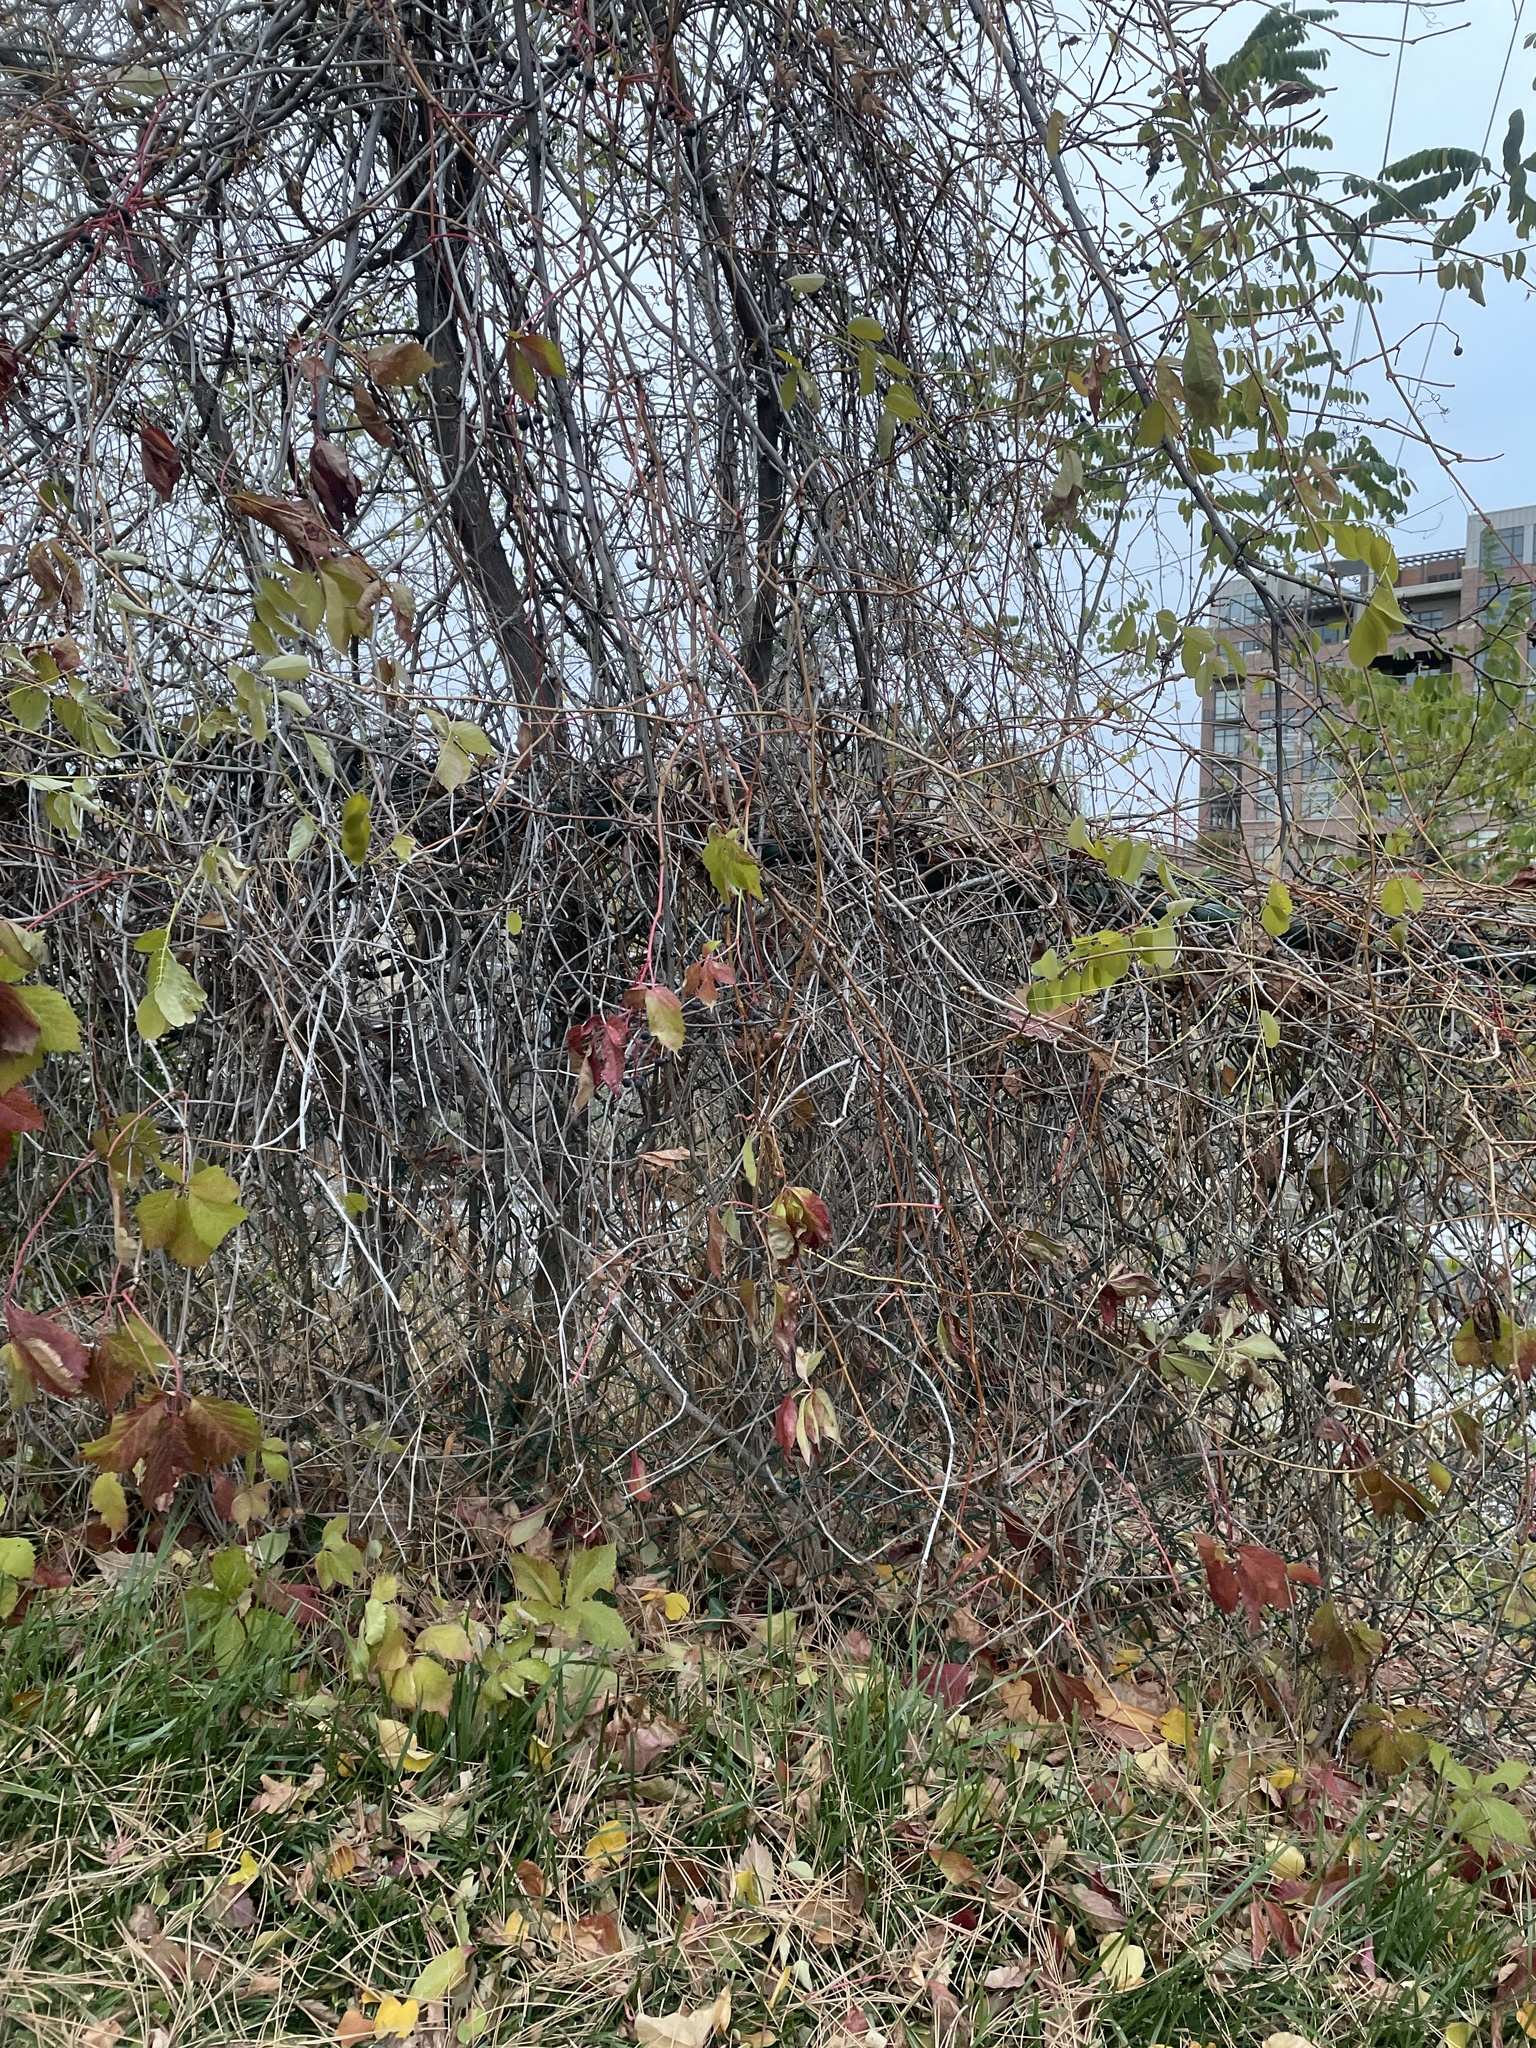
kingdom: Plantae
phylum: Tracheophyta
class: Magnoliopsida
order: Vitales
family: Vitaceae
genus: Parthenocissus
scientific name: Parthenocissus quinquefolia
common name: Virginia-creeper
